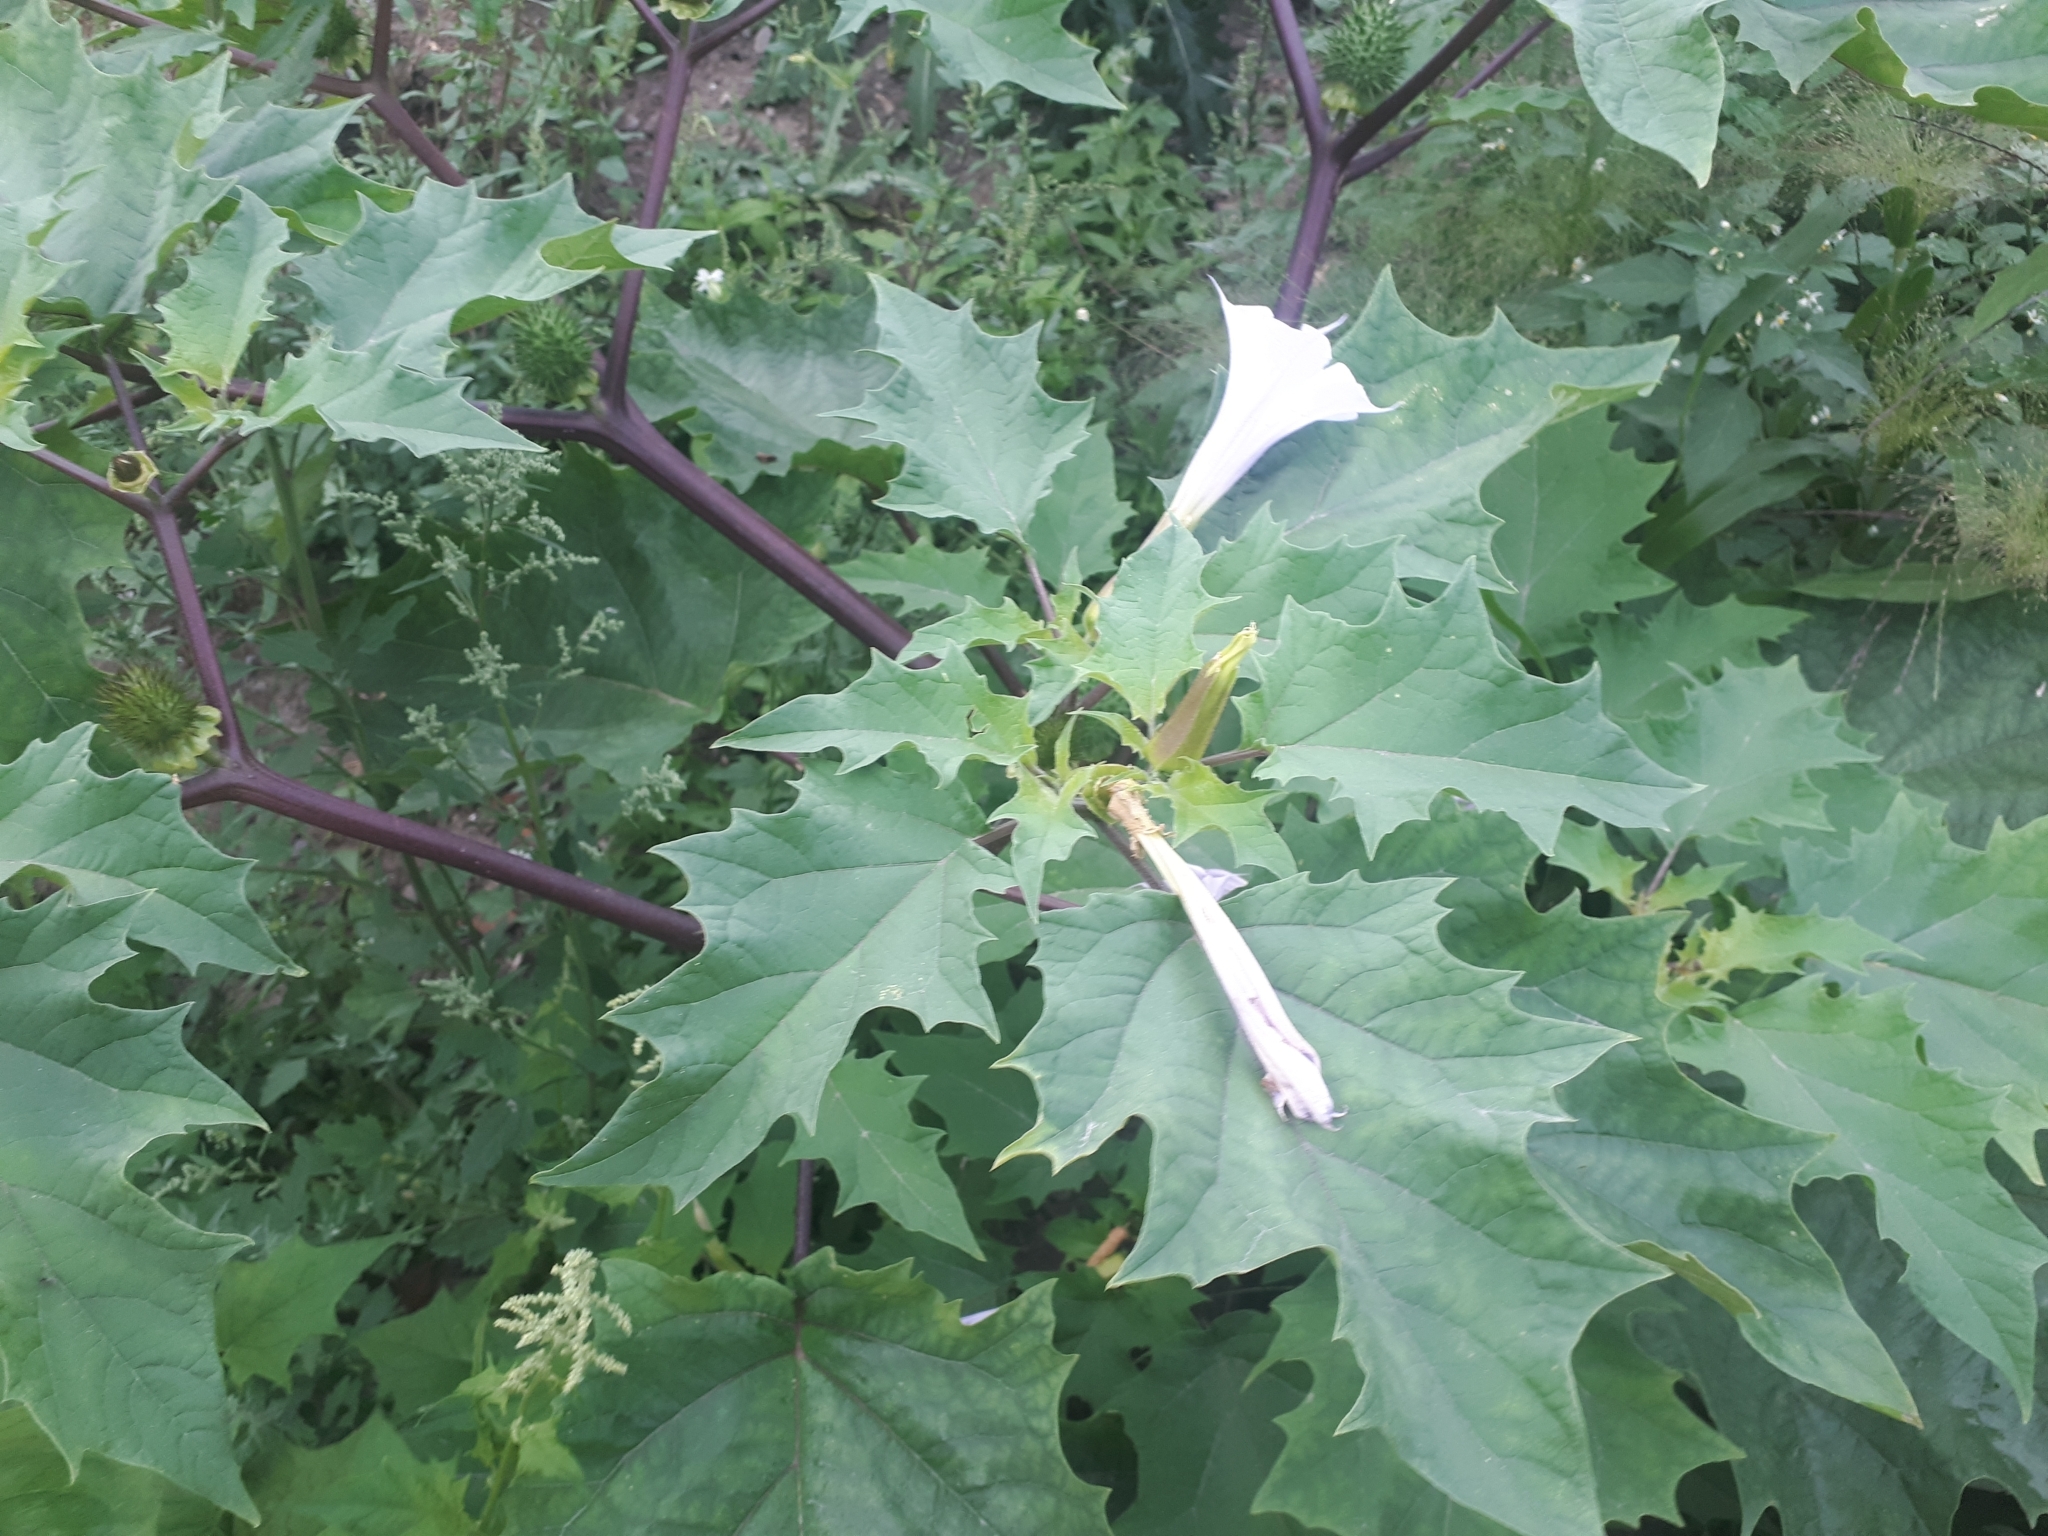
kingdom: Plantae
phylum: Tracheophyta
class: Magnoliopsida
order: Solanales
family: Solanaceae
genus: Datura
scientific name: Datura stramonium
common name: Thorn-apple
